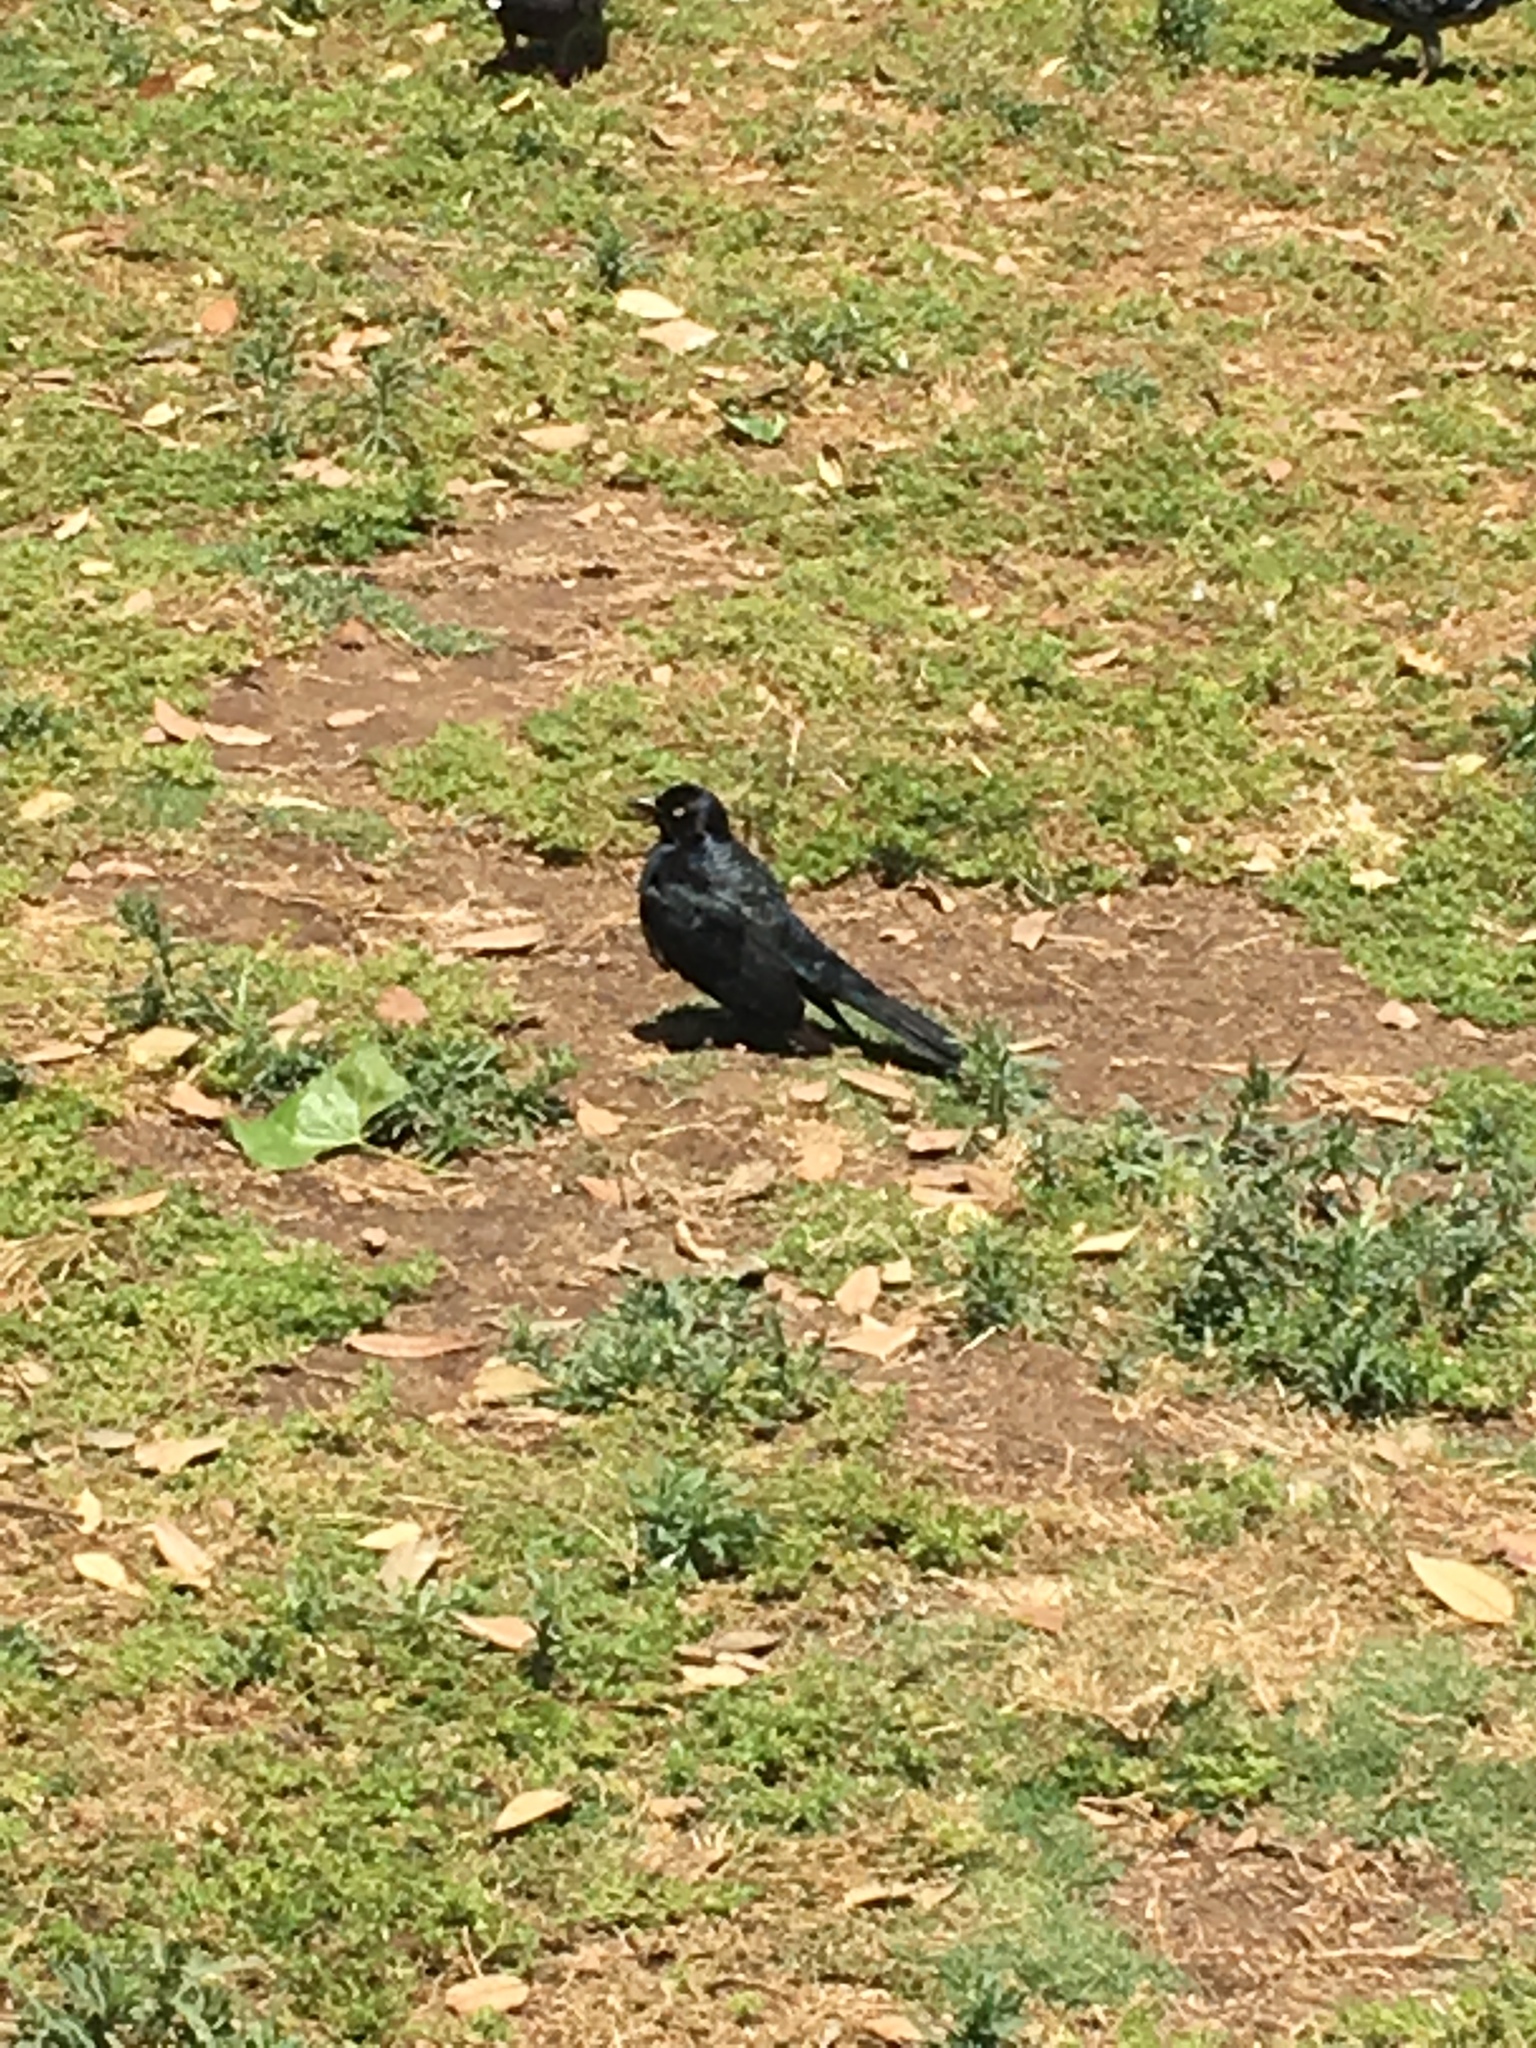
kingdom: Animalia
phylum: Chordata
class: Aves
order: Passeriformes
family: Icteridae
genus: Euphagus
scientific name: Euphagus cyanocephalus
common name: Brewer's blackbird
